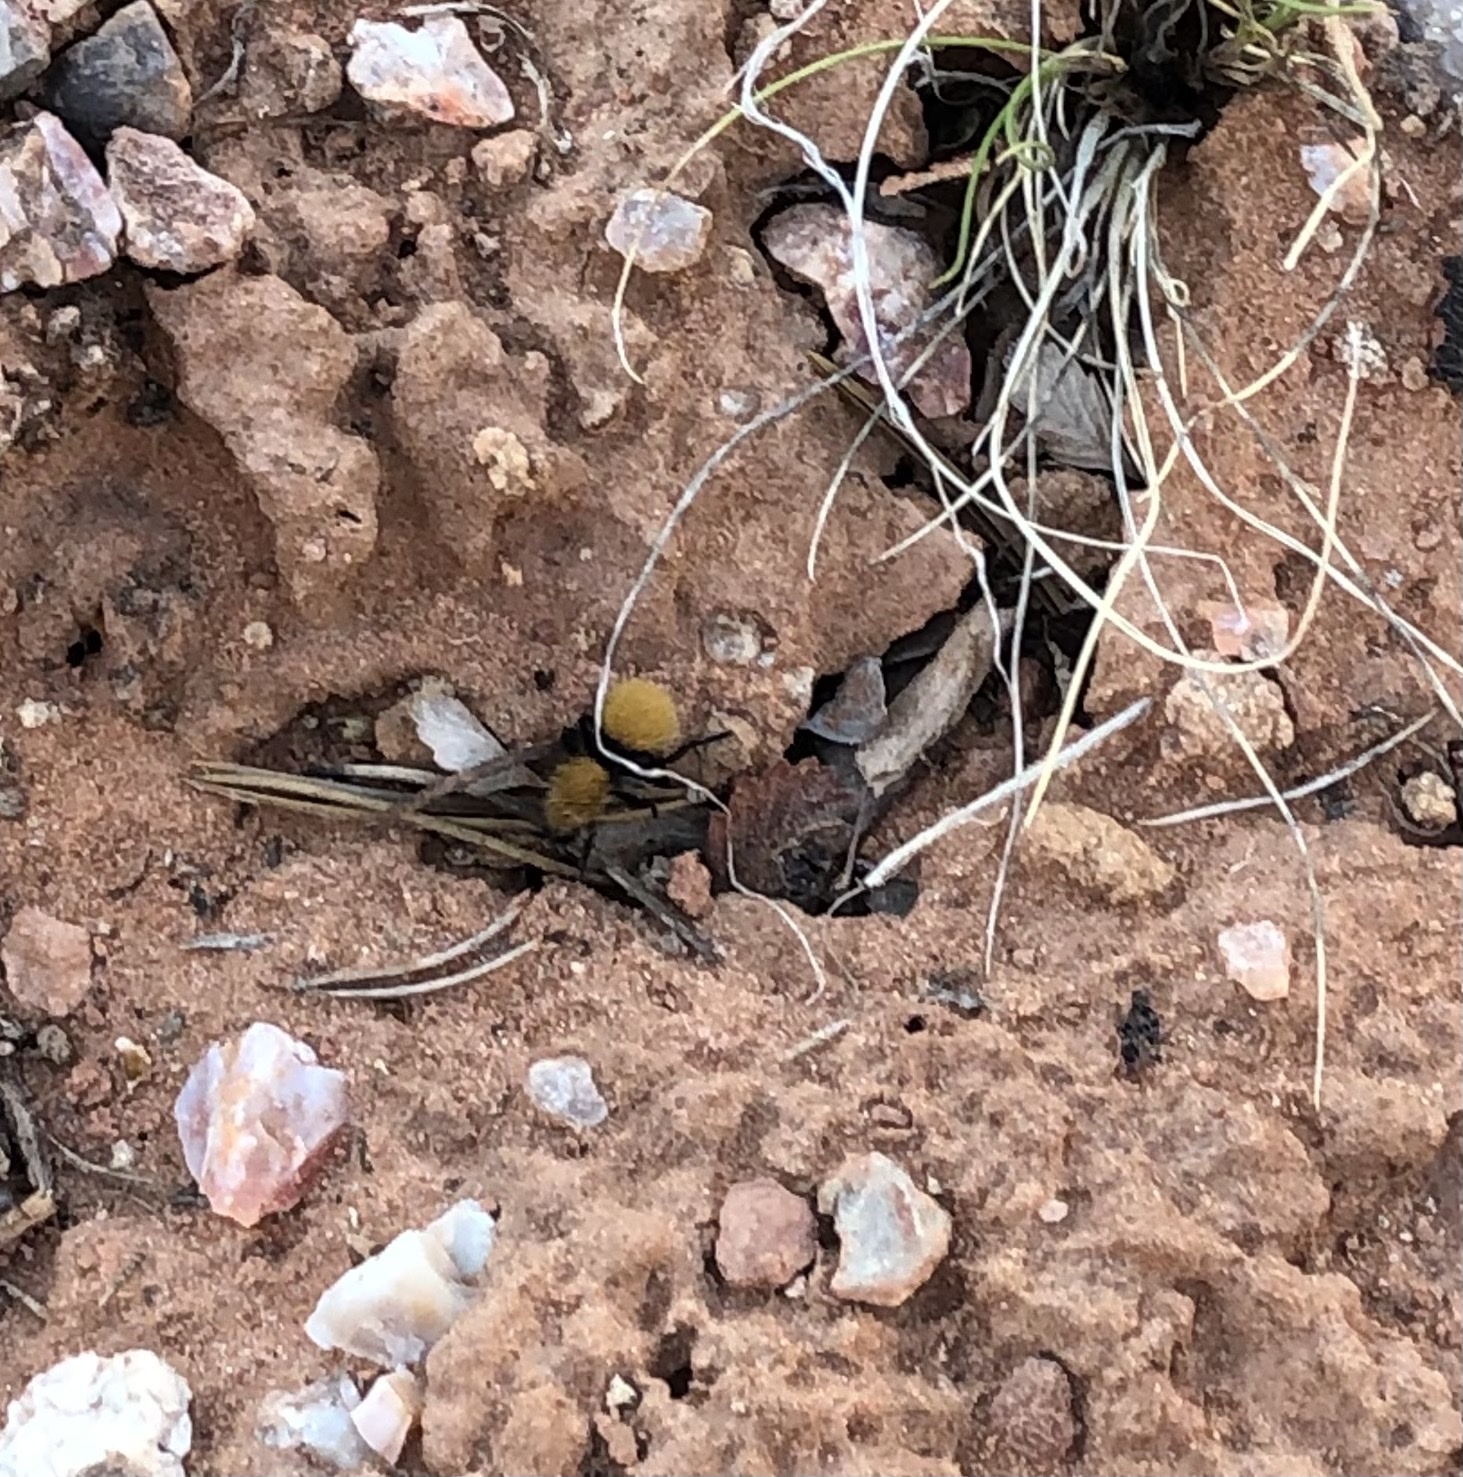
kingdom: Animalia
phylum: Arthropoda
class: Insecta
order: Hymenoptera
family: Mutillidae
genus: Dasymutilla
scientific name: Dasymutilla vestita
